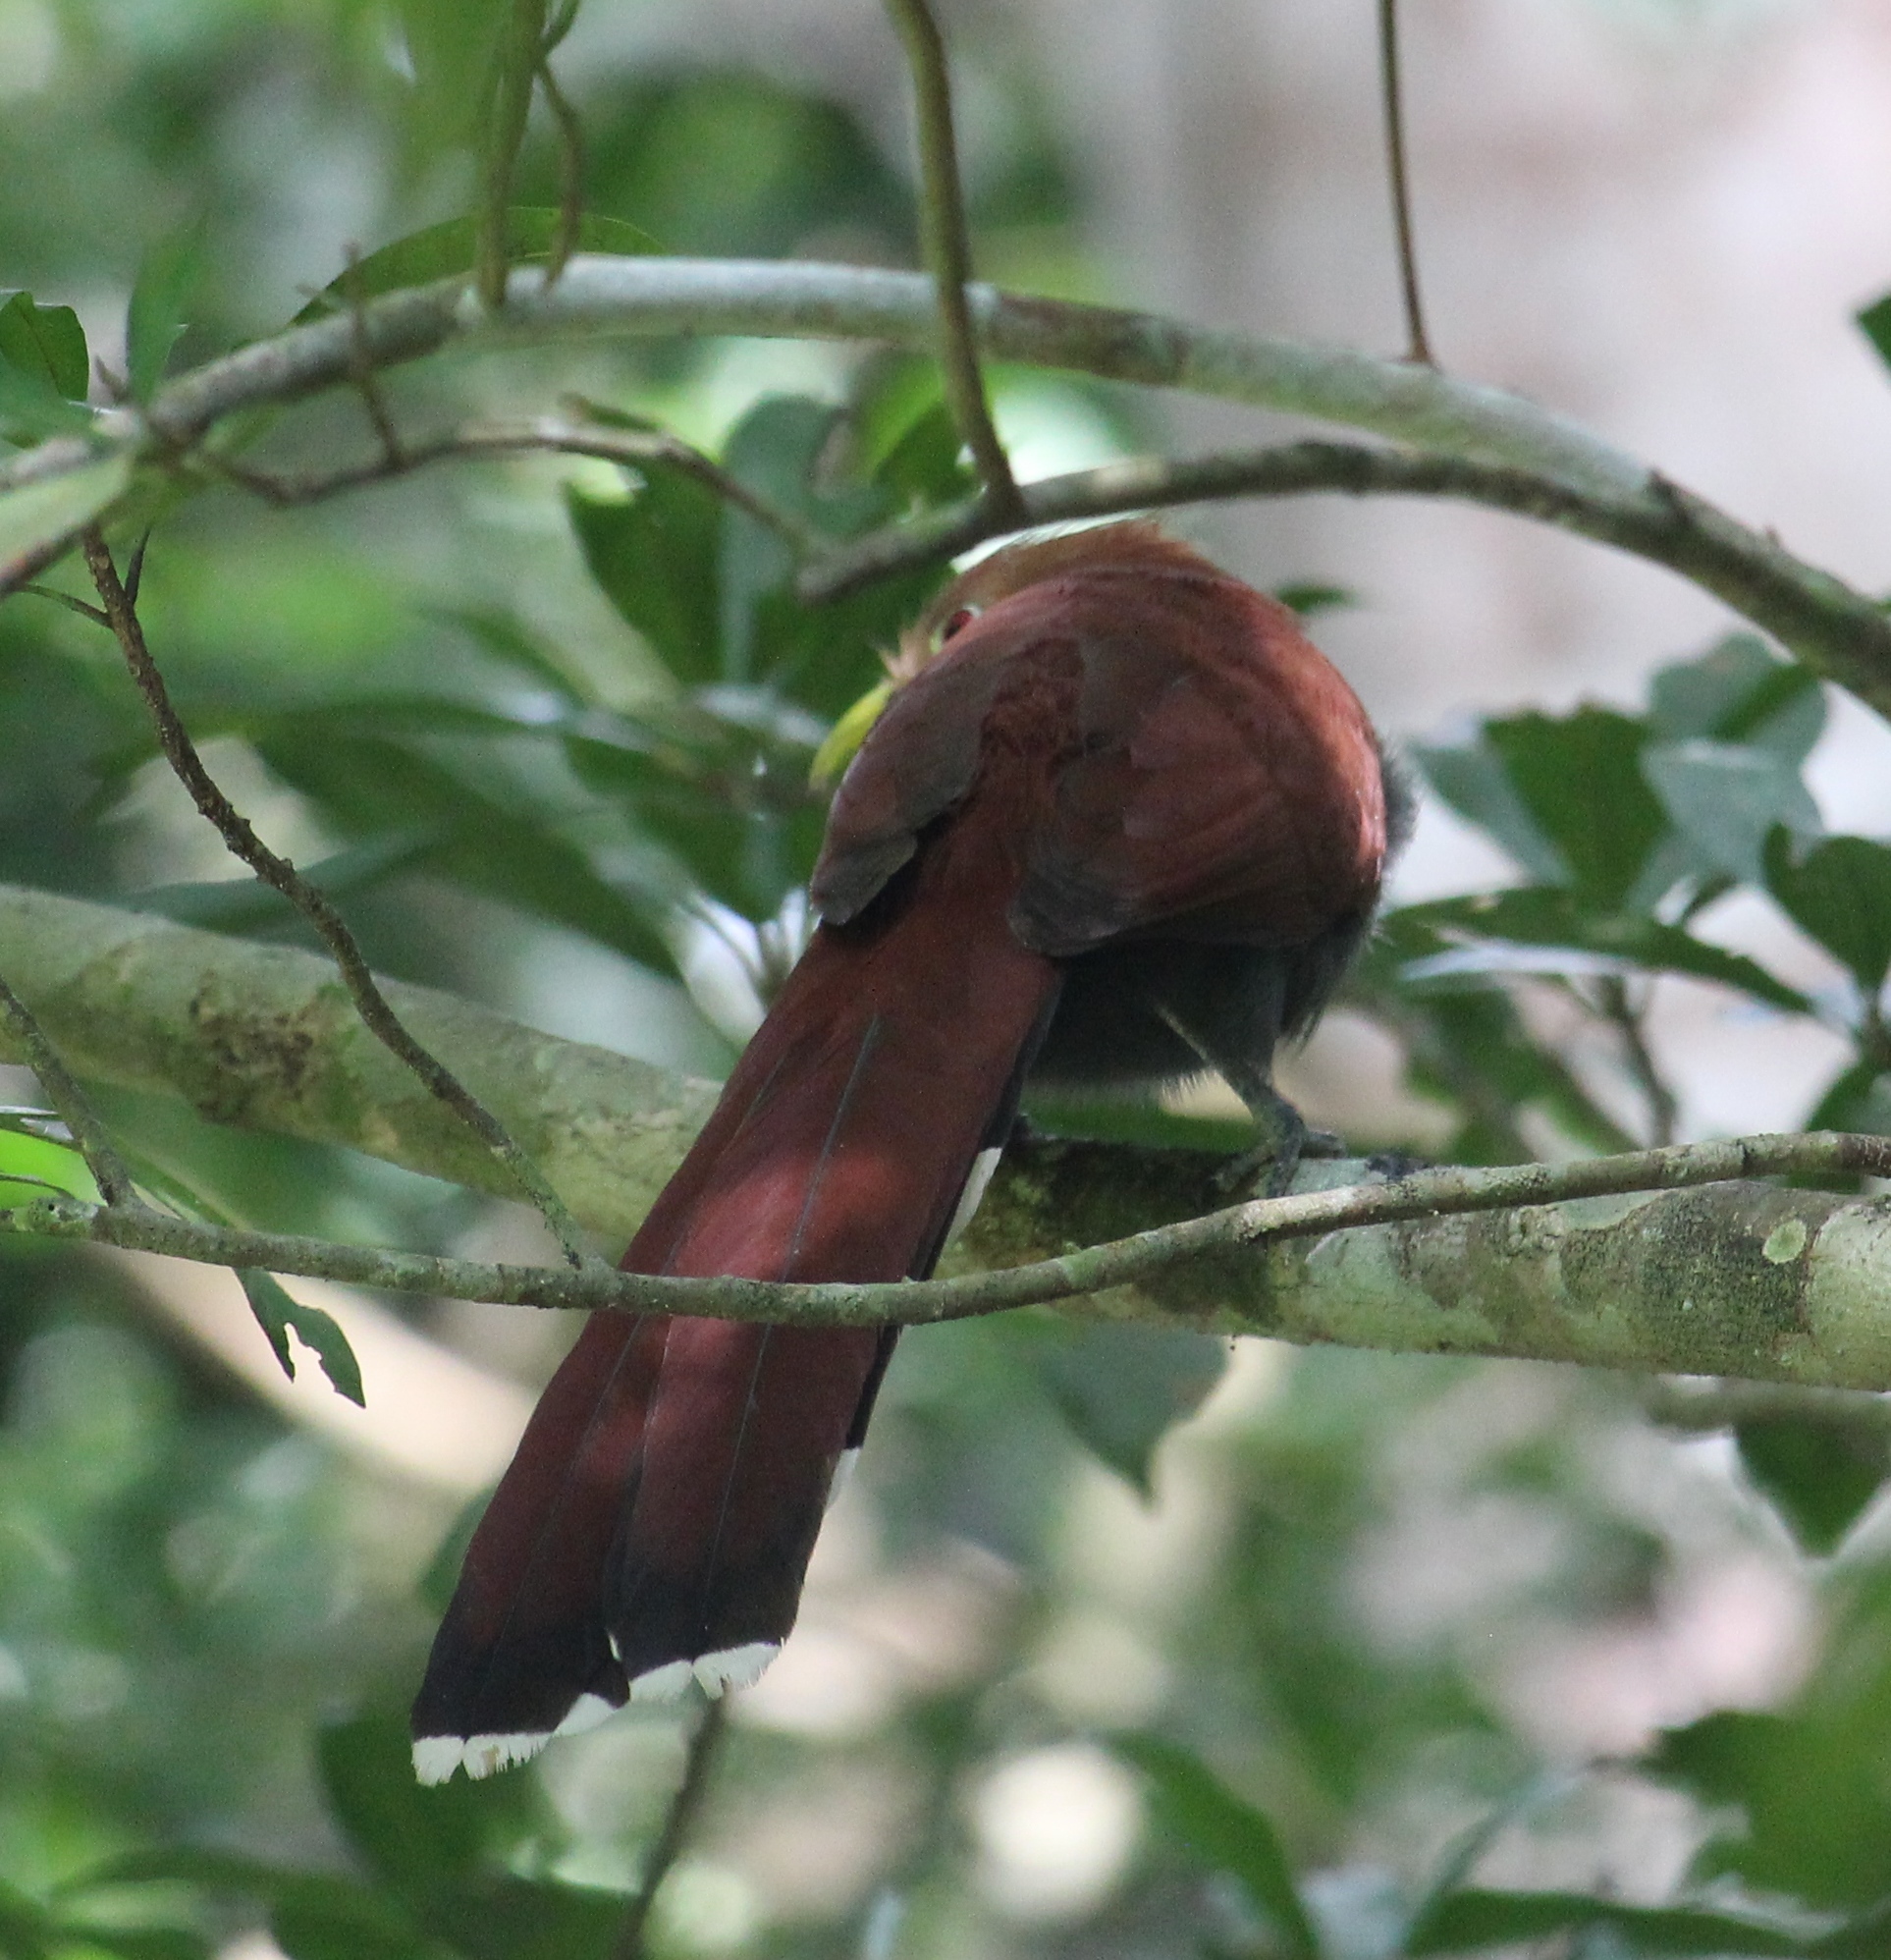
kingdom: Animalia
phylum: Chordata
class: Aves
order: Cuculiformes
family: Cuculidae
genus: Piaya
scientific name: Piaya cayana
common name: Squirrel cuckoo
